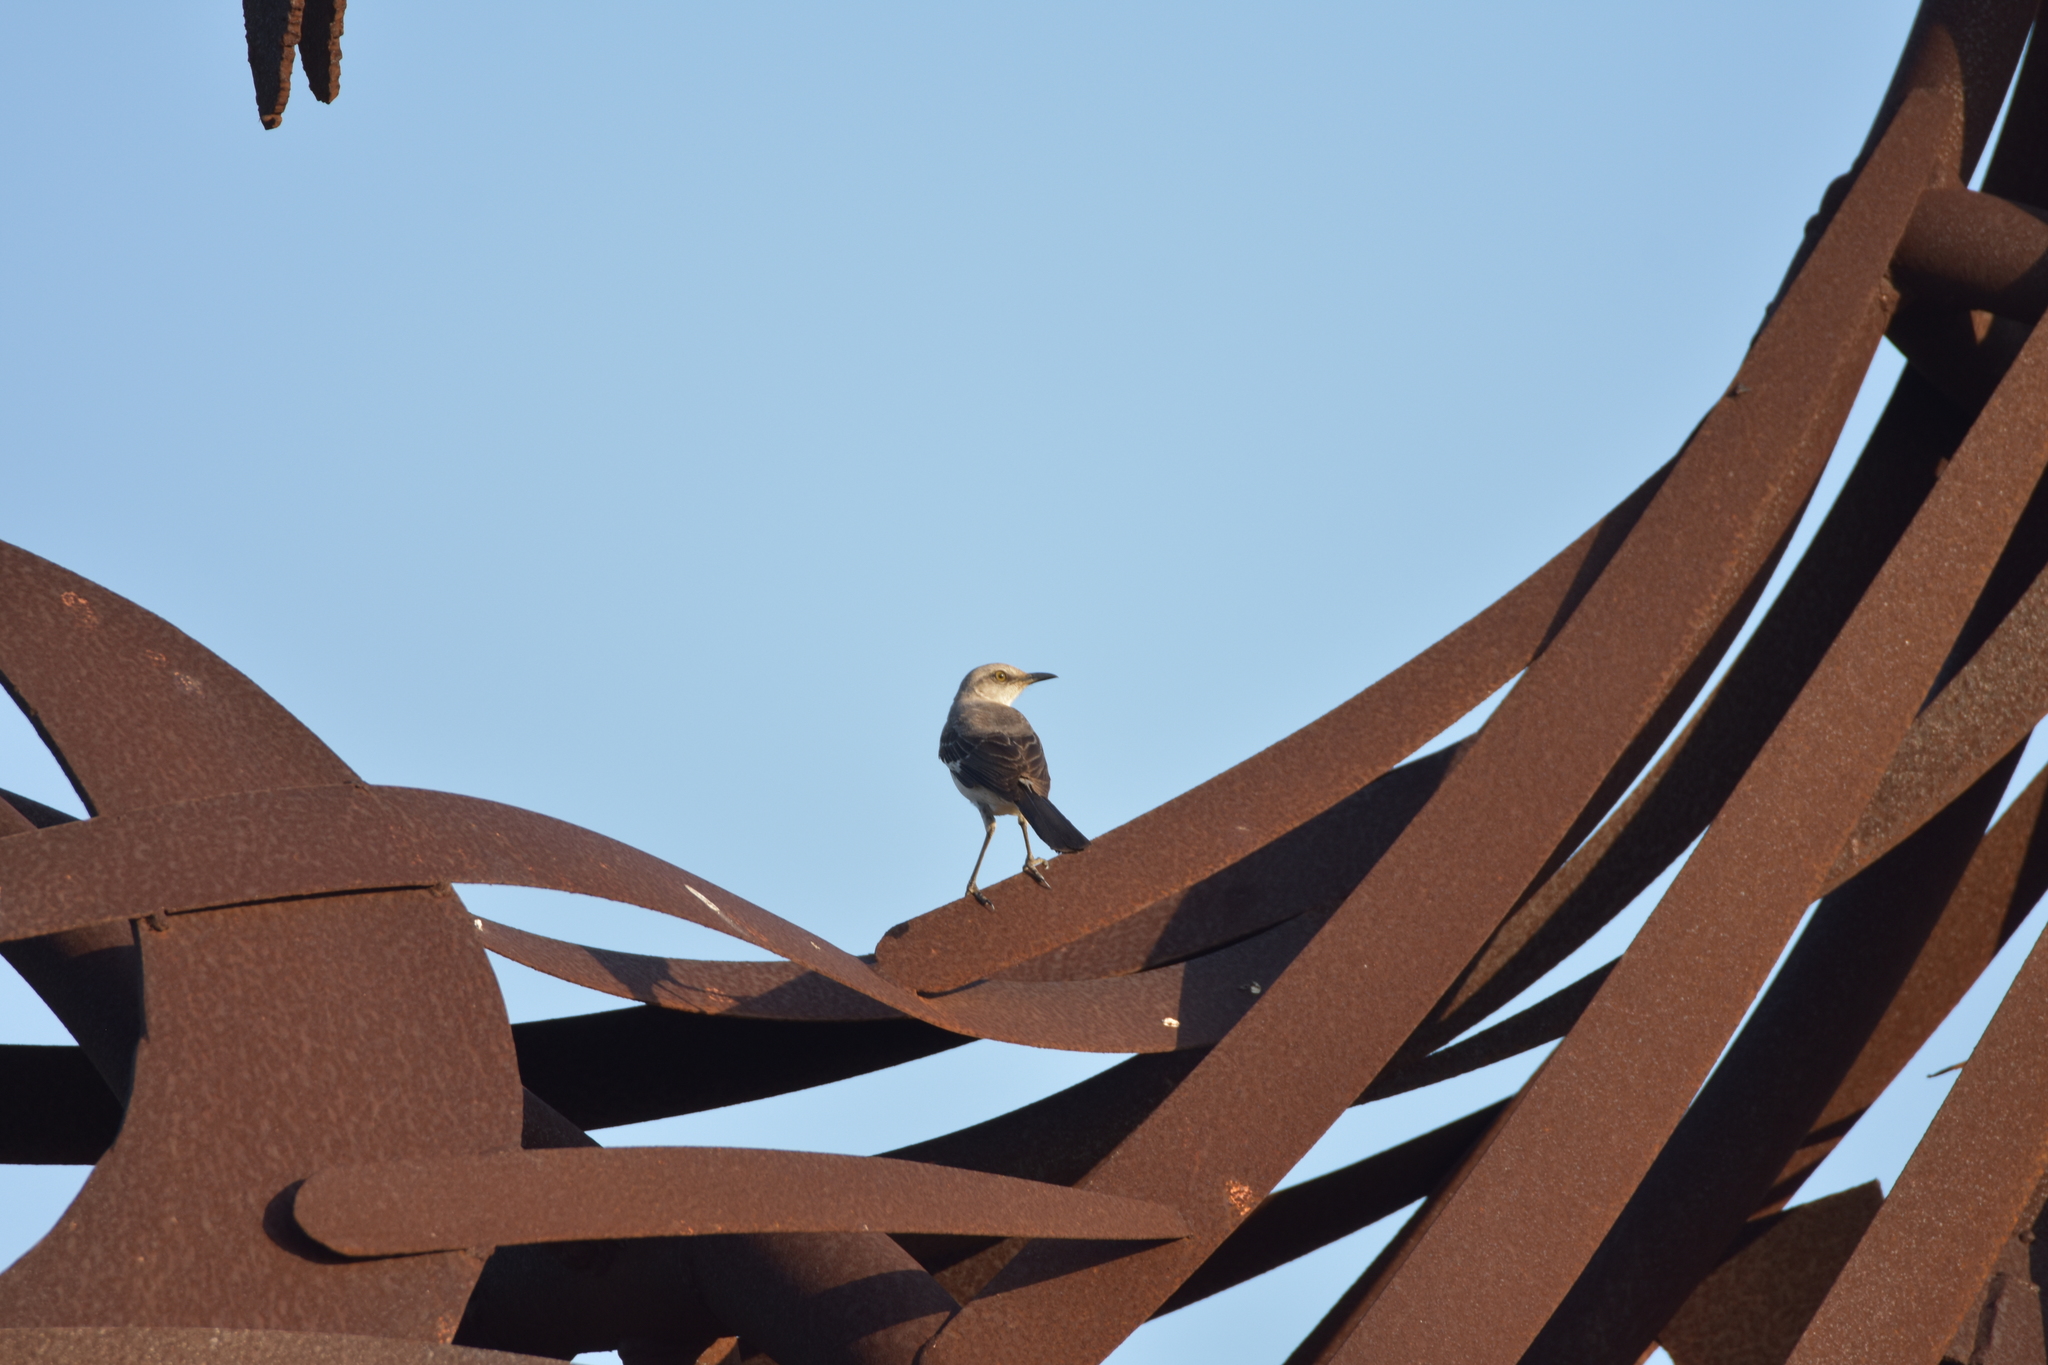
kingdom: Animalia
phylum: Chordata
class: Aves
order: Passeriformes
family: Mimidae
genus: Mimus
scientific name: Mimus polyglottos
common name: Northern mockingbird
